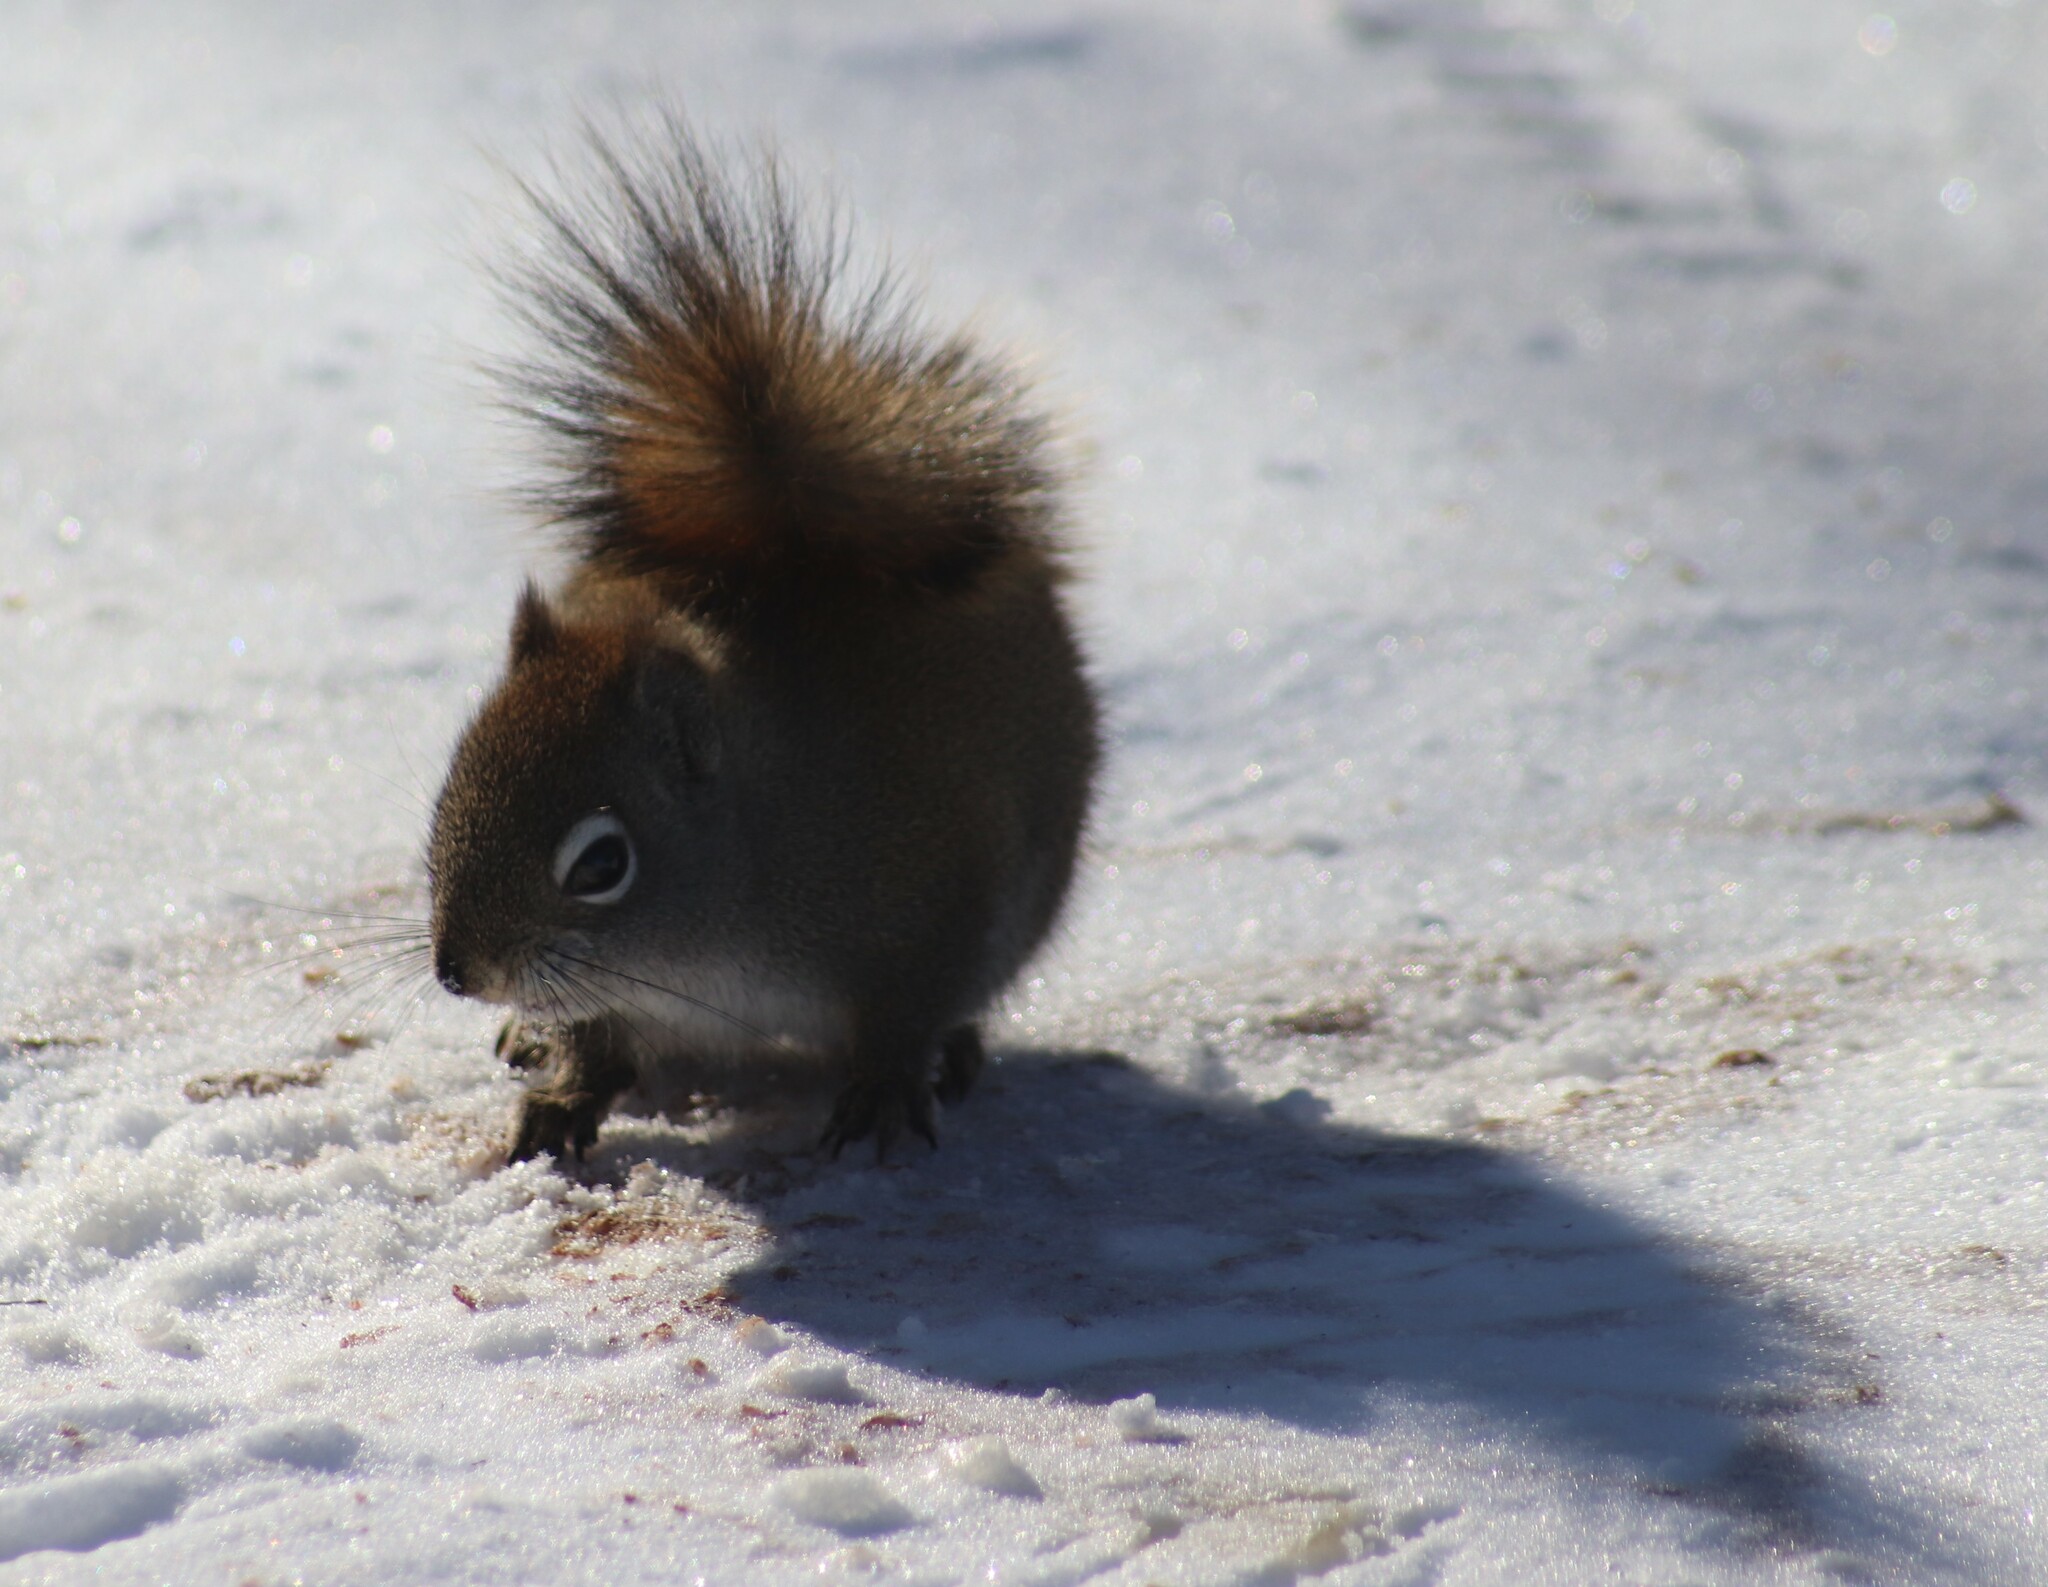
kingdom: Animalia
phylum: Chordata
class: Mammalia
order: Rodentia
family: Sciuridae
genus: Tamiasciurus
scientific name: Tamiasciurus hudsonicus
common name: Red squirrel
